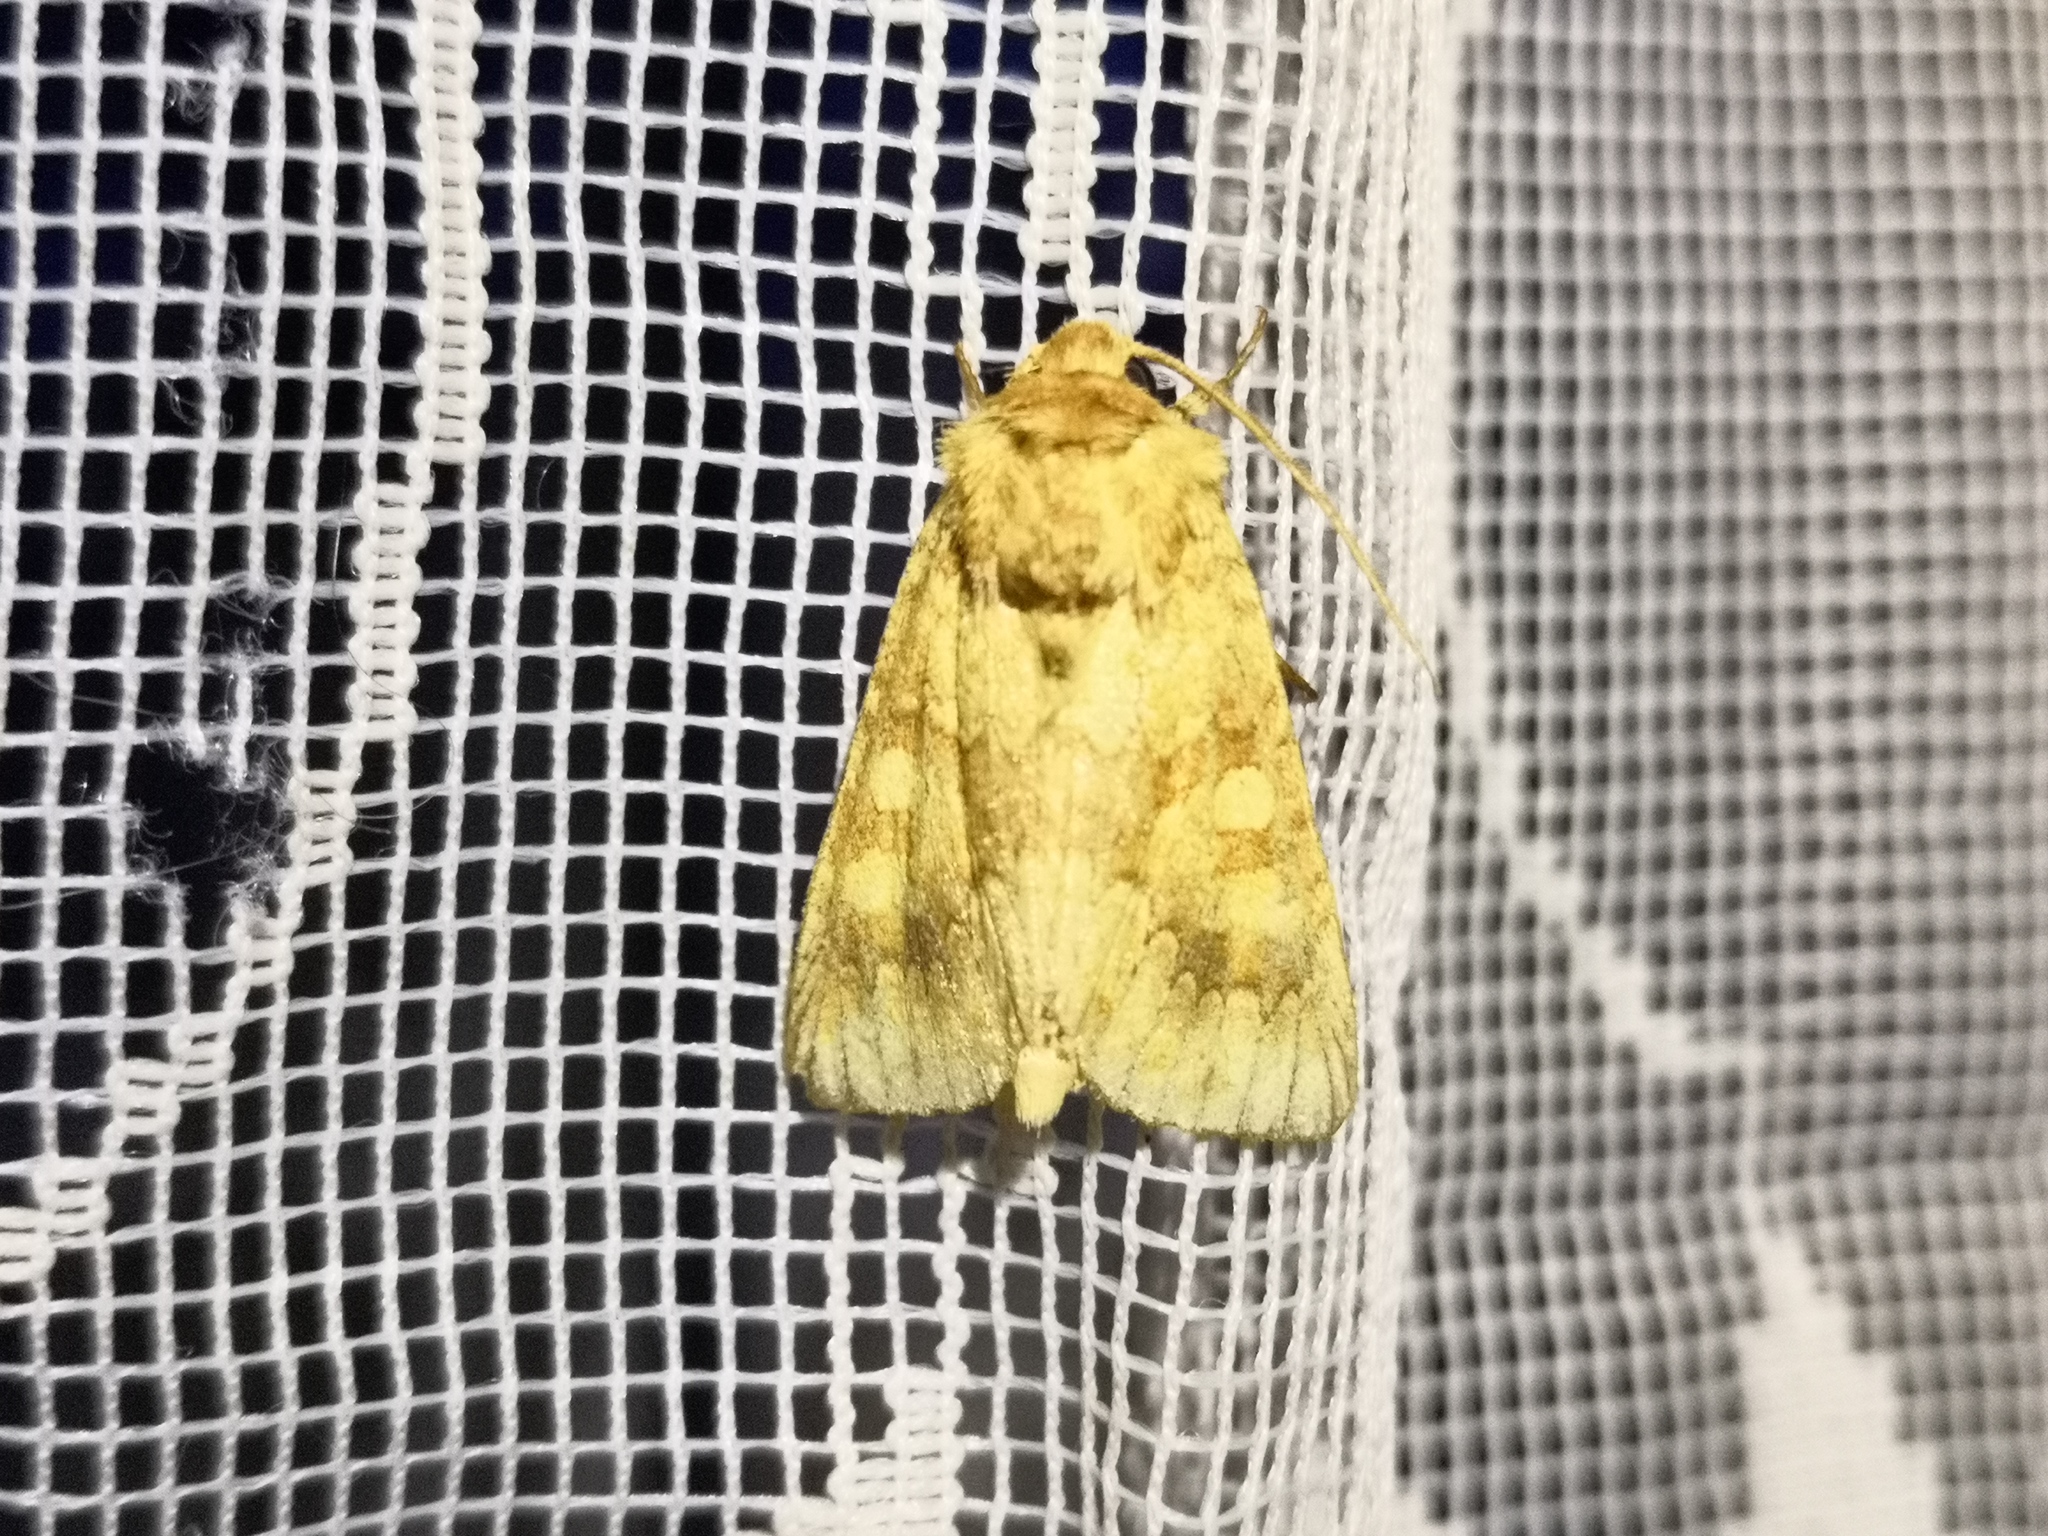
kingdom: Animalia
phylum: Arthropoda
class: Insecta
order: Lepidoptera
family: Noctuidae
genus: Conisania
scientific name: Conisania luteago
